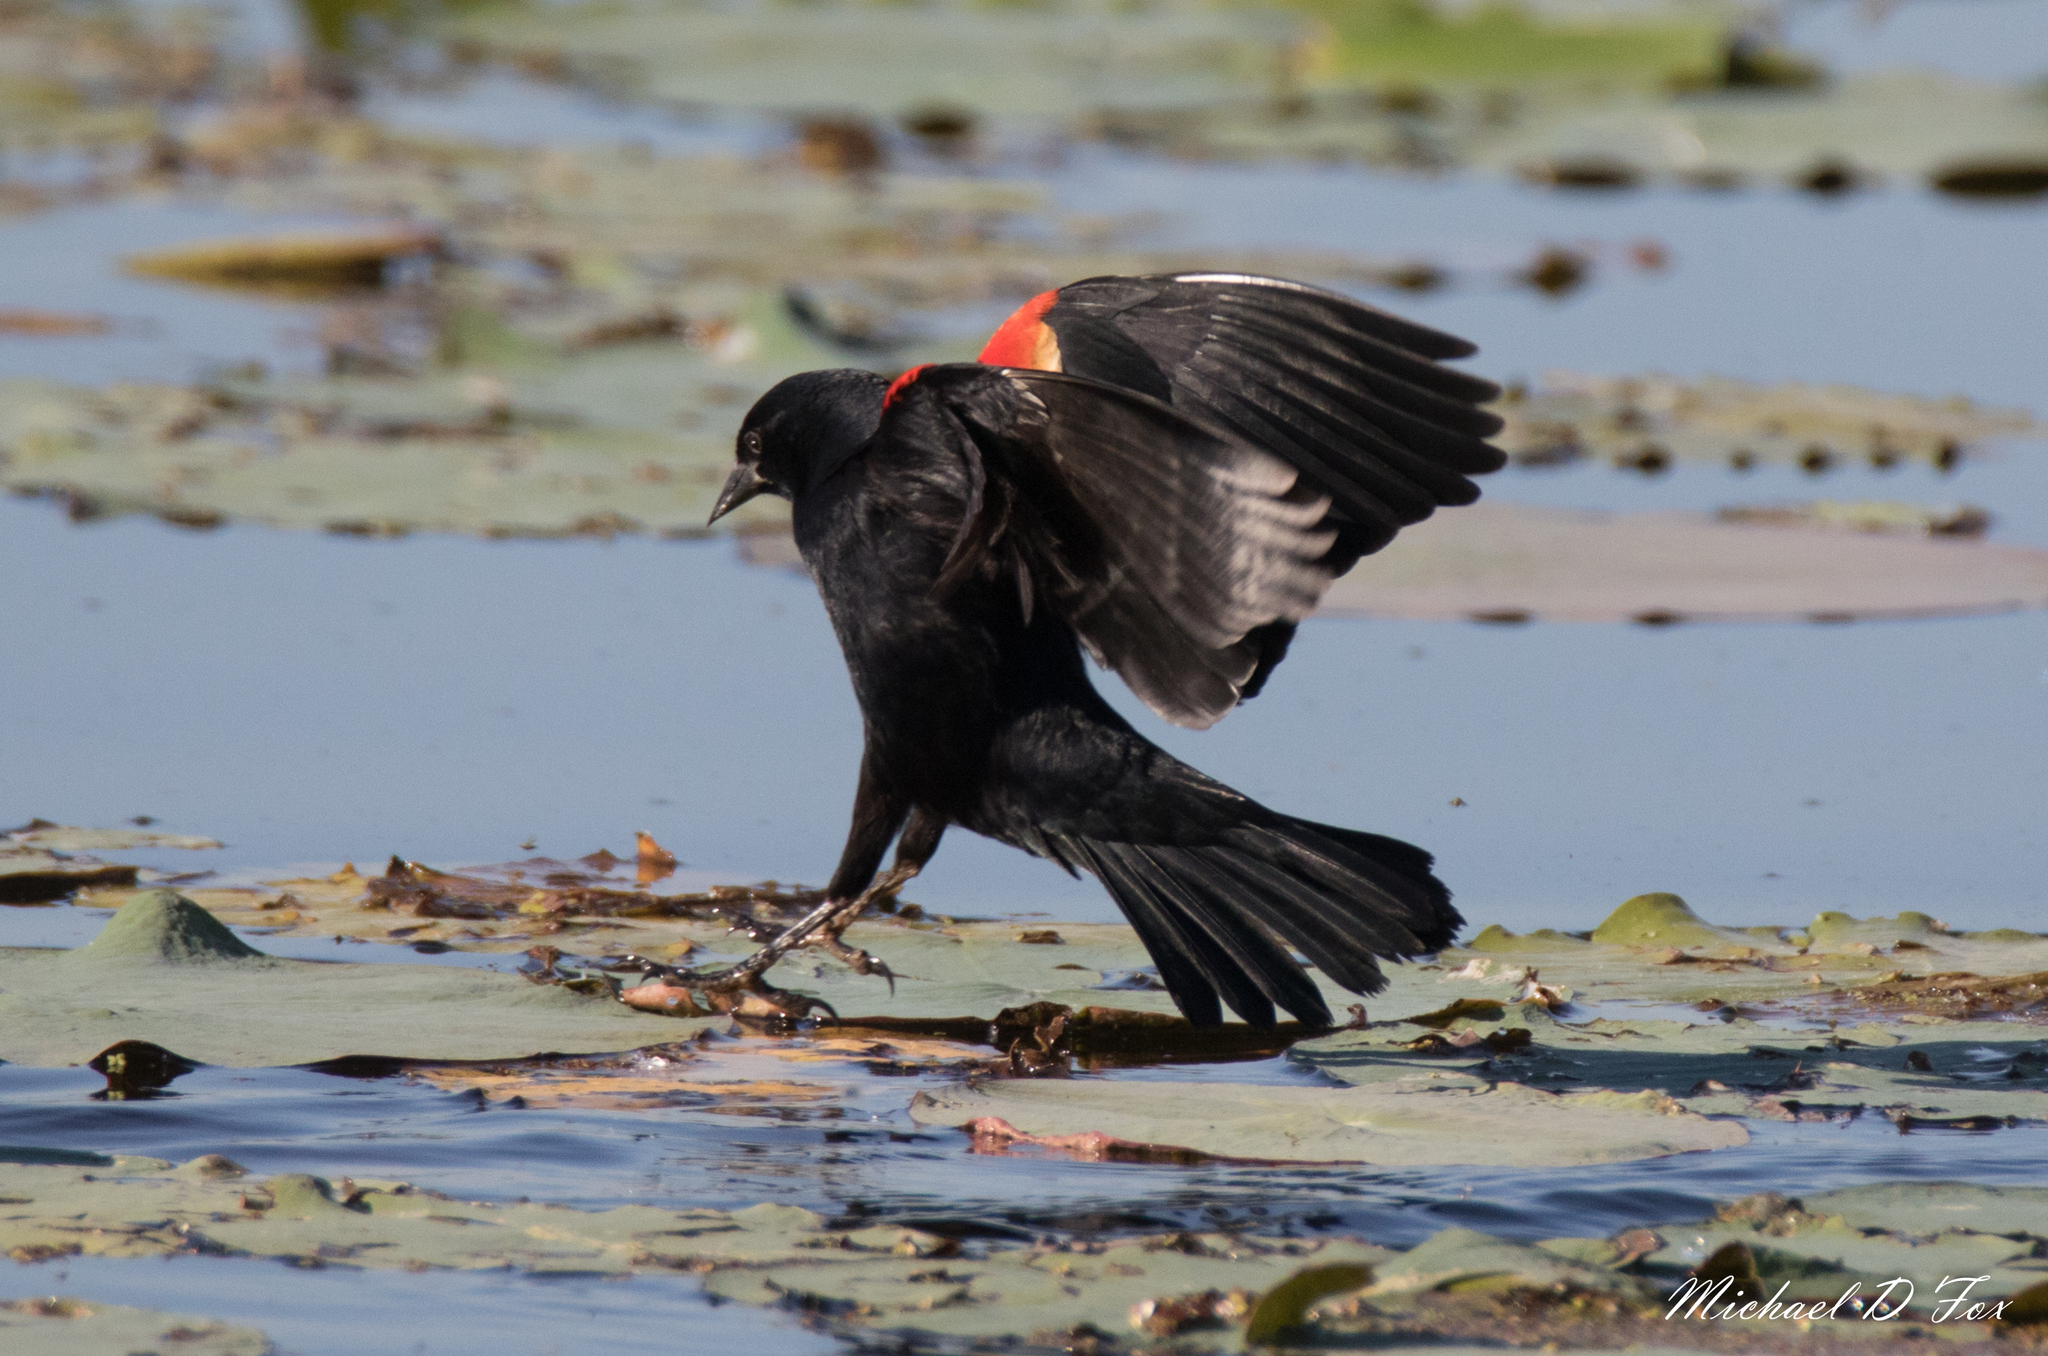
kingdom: Animalia
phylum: Chordata
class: Aves
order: Passeriformes
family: Icteridae
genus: Agelaius
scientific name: Agelaius phoeniceus
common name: Red-winged blackbird
